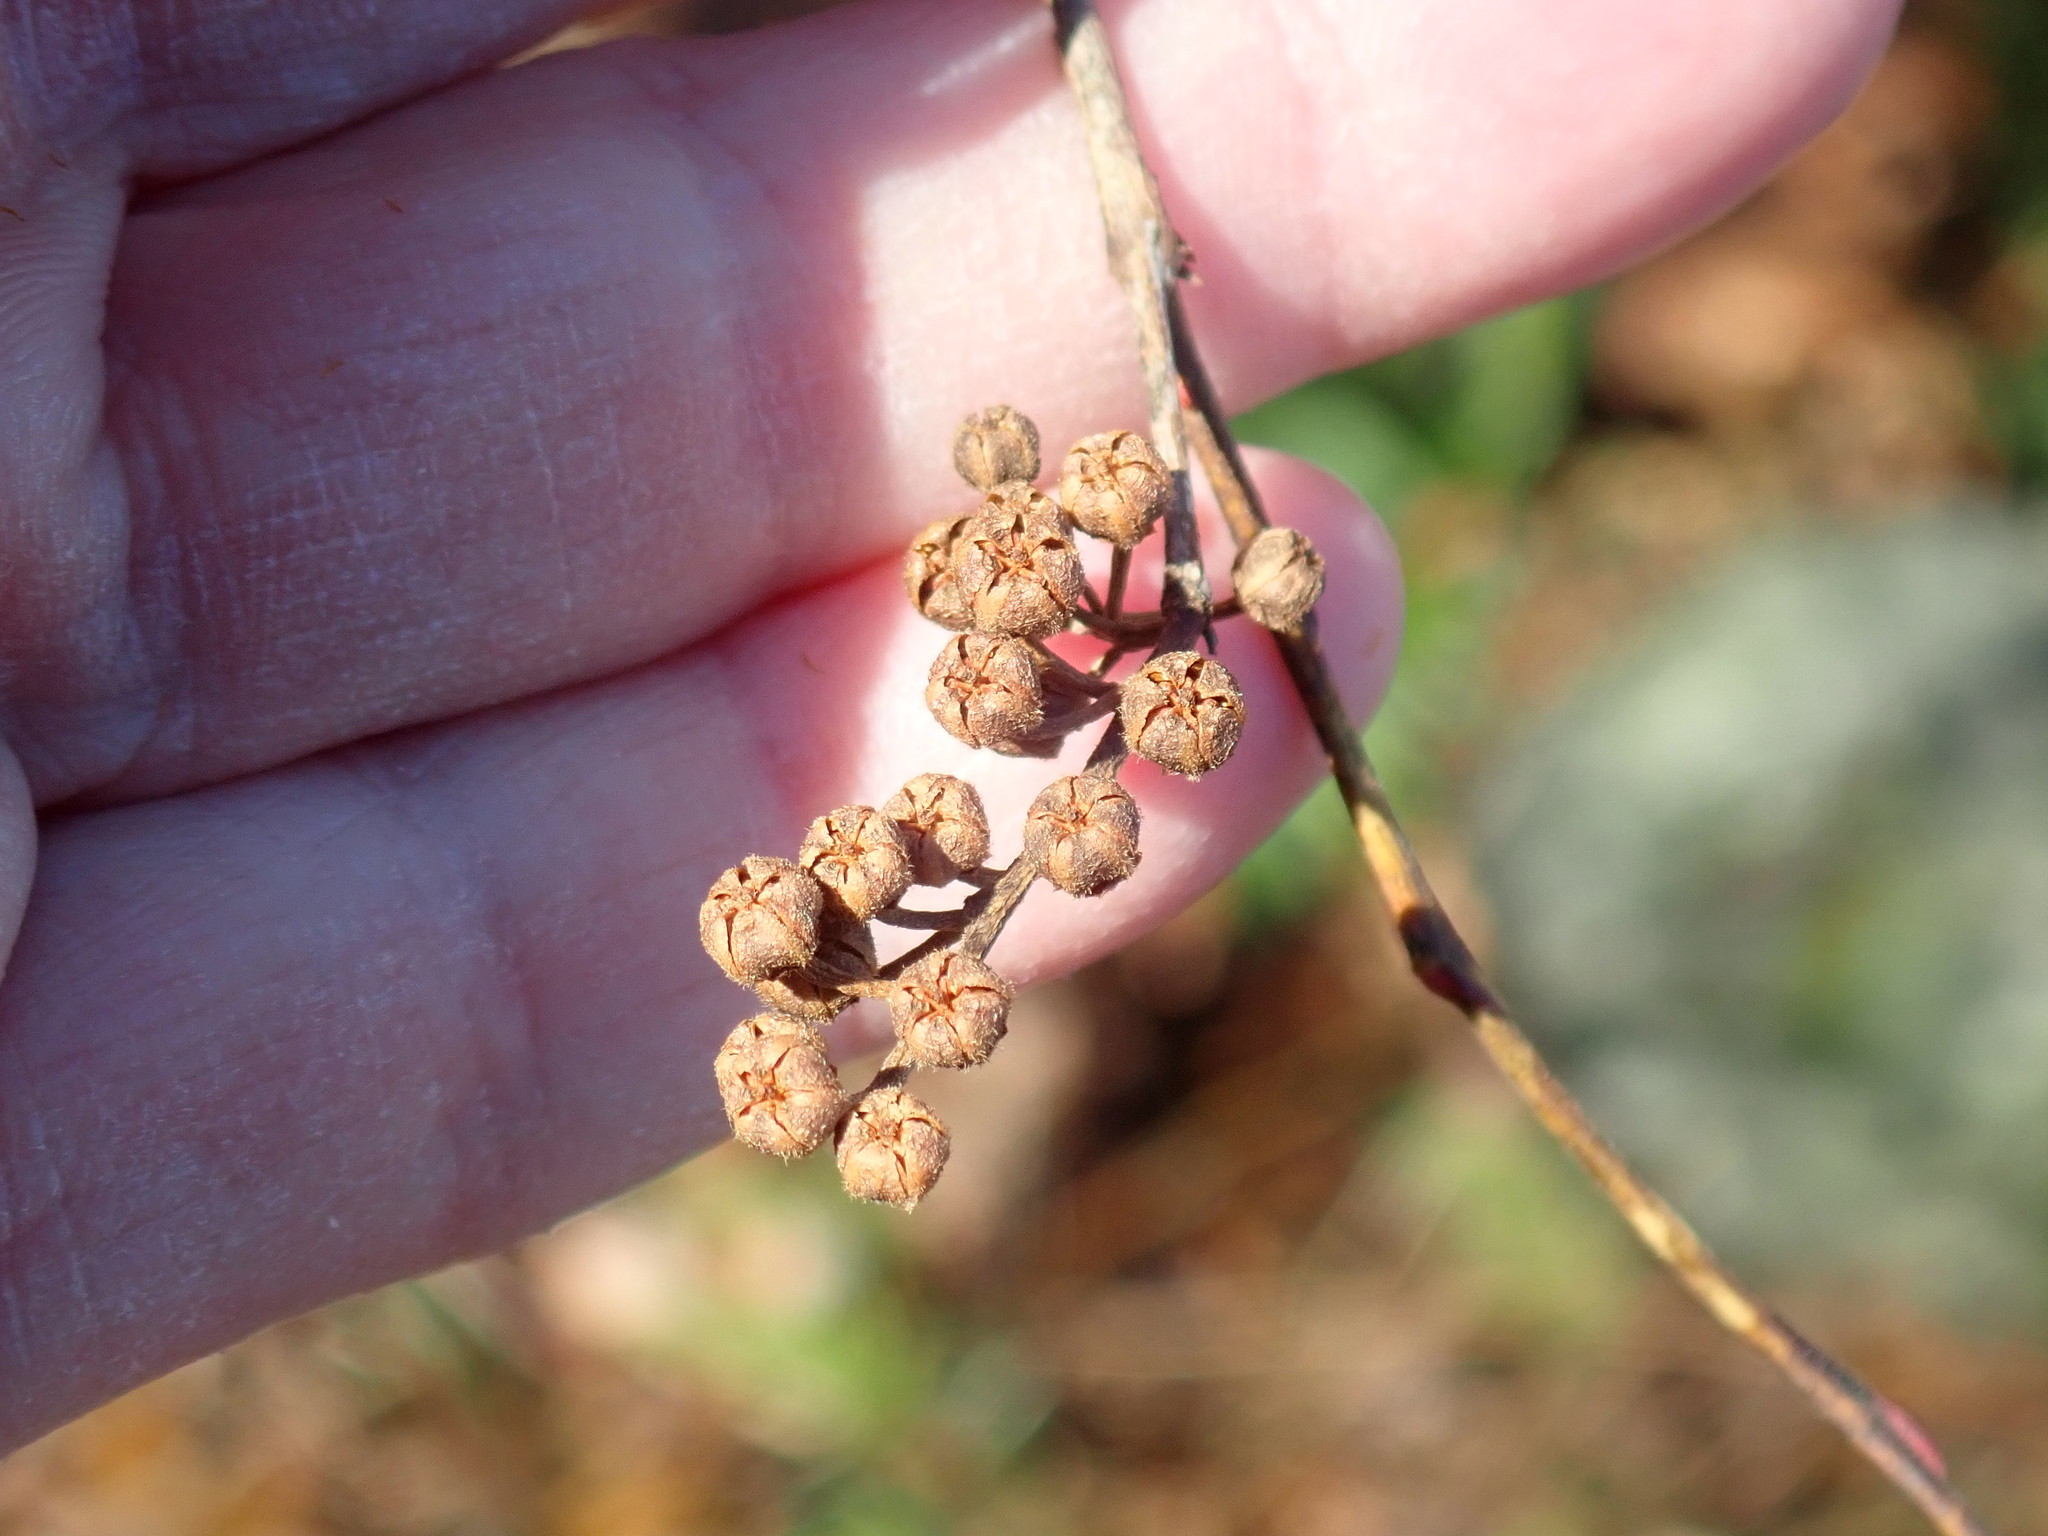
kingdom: Plantae
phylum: Tracheophyta
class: Magnoliopsida
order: Ericales
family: Ericaceae
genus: Lyonia
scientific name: Lyonia ligustrina
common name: Maleberry
